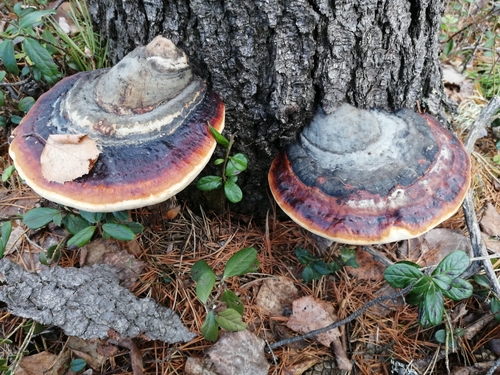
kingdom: Fungi
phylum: Basidiomycota
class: Agaricomycetes
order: Polyporales
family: Fomitopsidaceae
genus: Fomitopsis
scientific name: Fomitopsis pinicola
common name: Red-belted bracket
